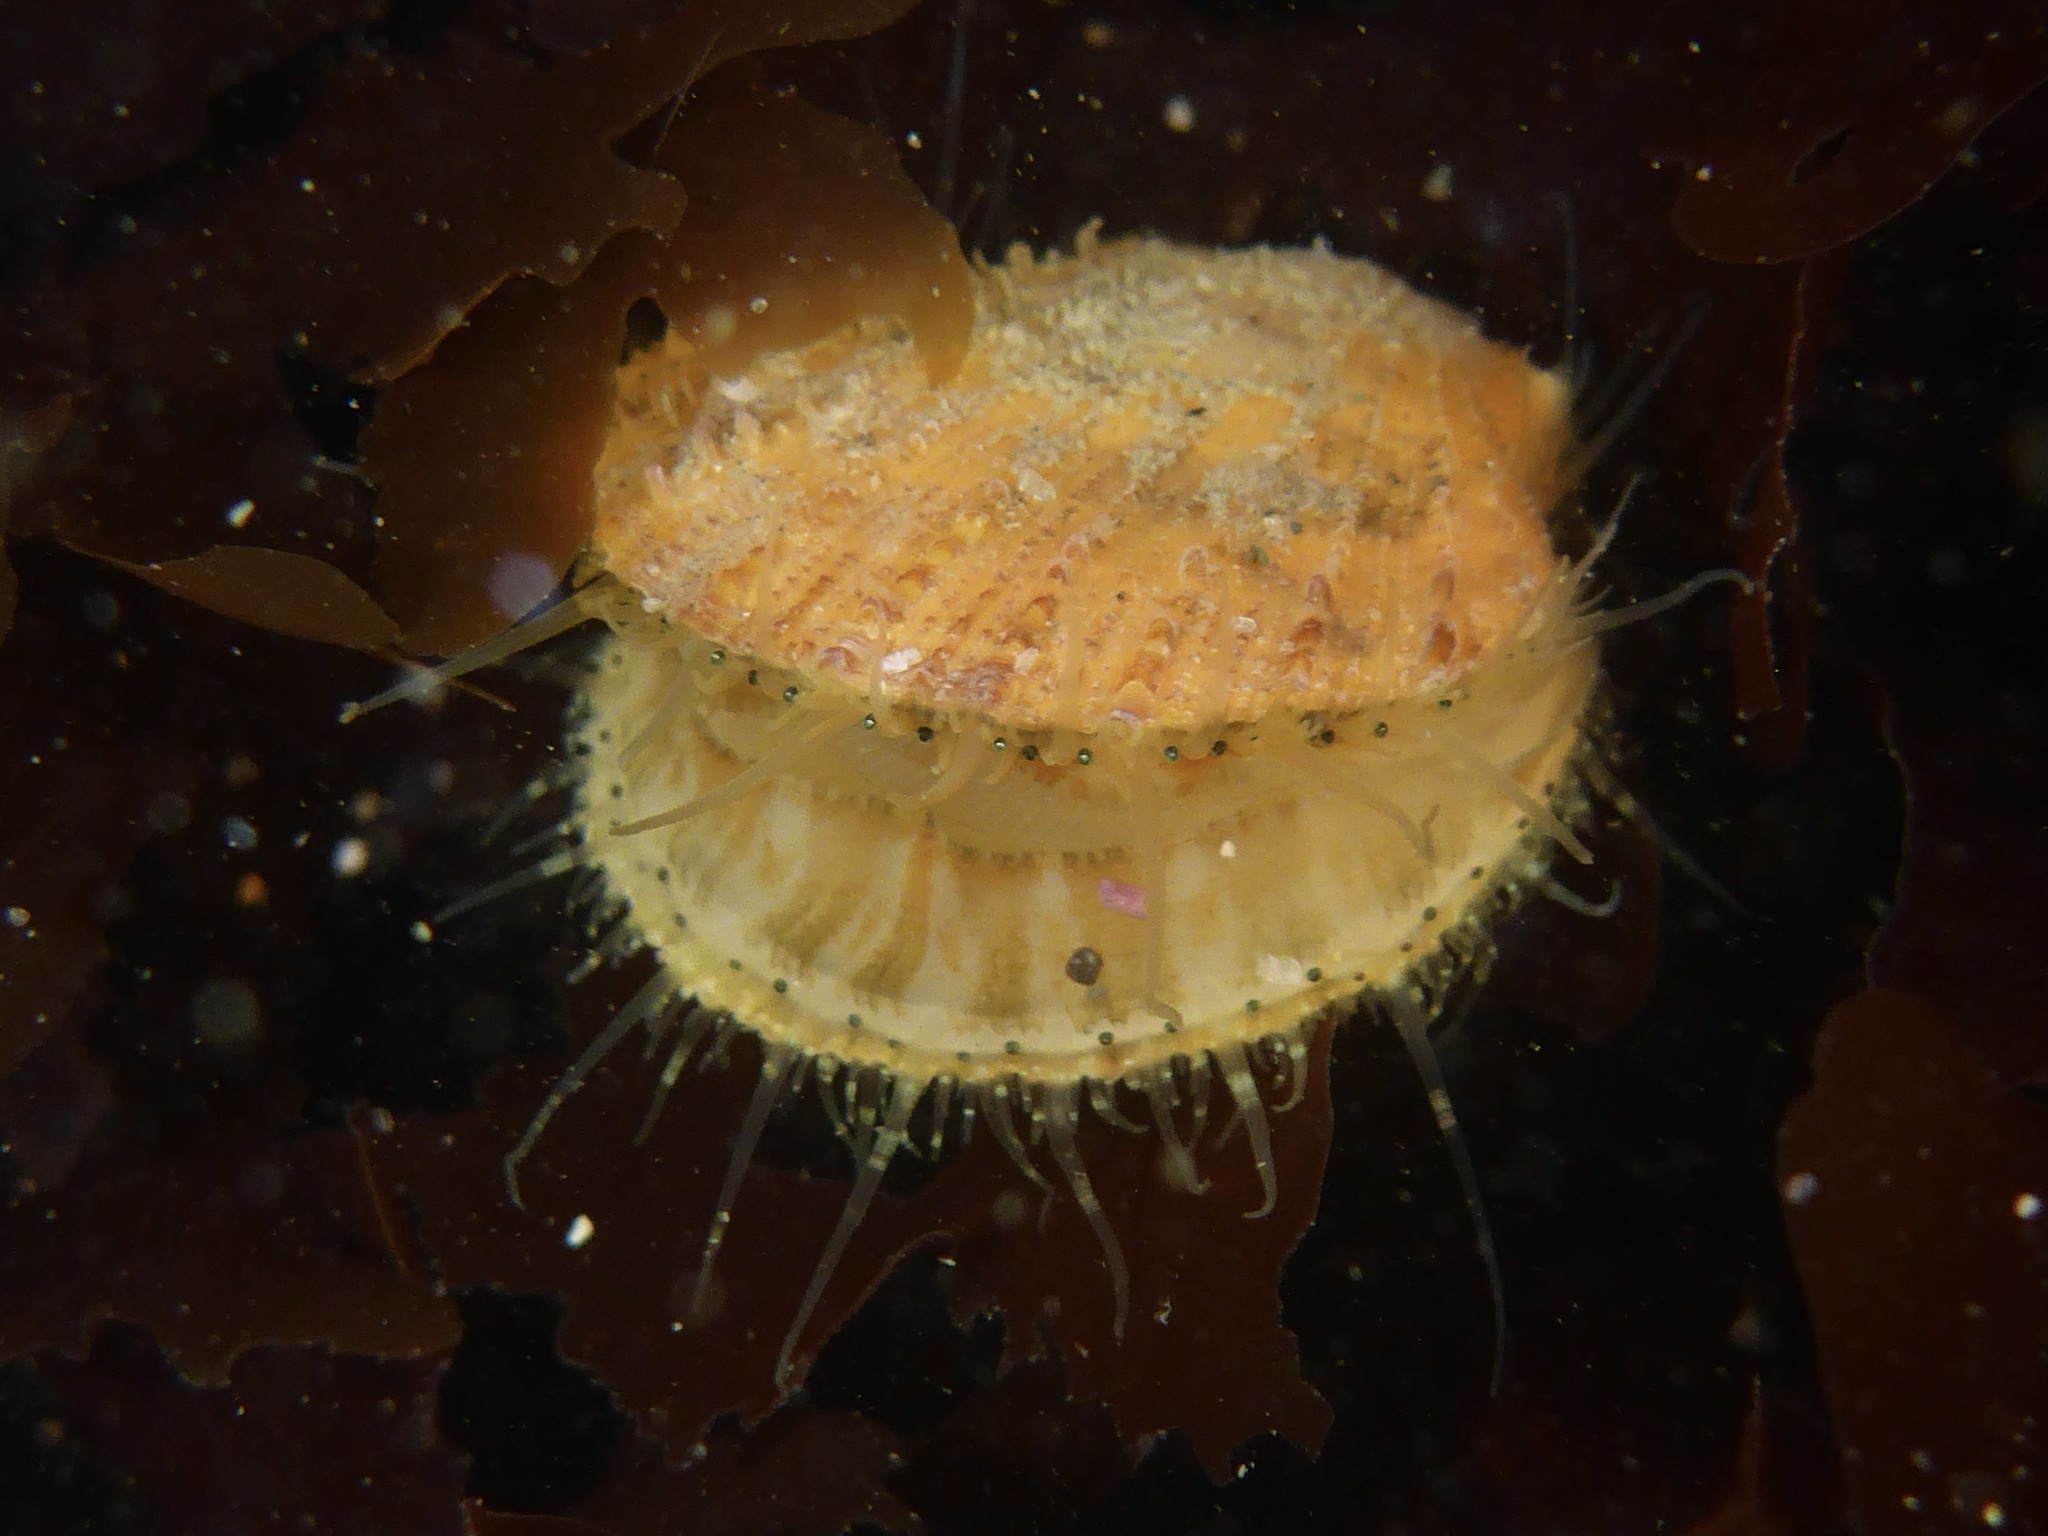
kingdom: Animalia
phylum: Mollusca
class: Bivalvia
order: Pectinida
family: Pectinidae
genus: Crassadoma
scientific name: Crassadoma gigantea
